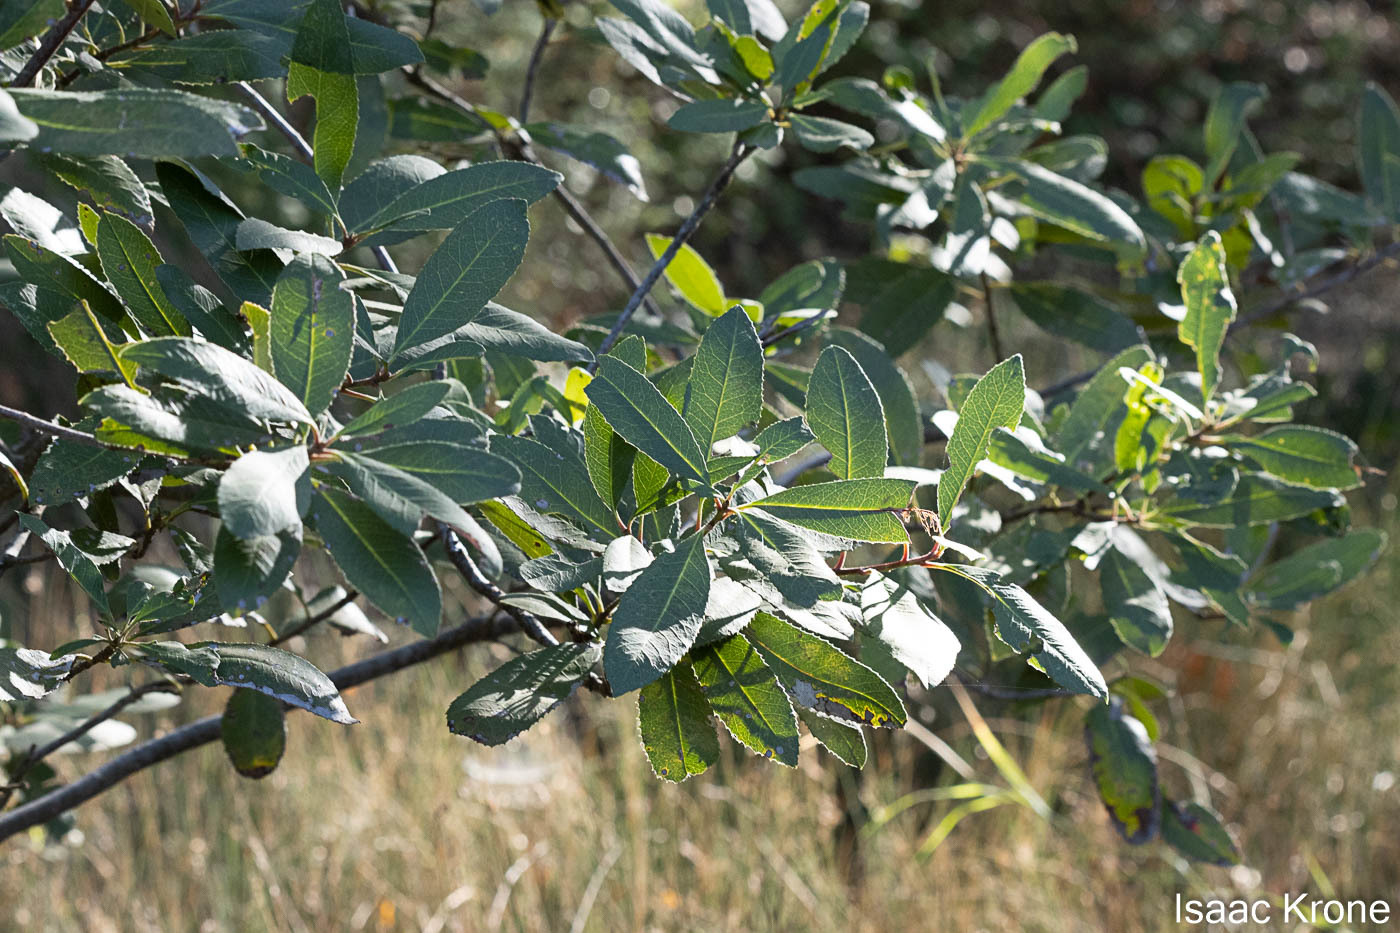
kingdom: Plantae
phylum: Tracheophyta
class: Magnoliopsida
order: Rosales
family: Rosaceae
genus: Heteromeles
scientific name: Heteromeles arbutifolia
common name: California-holly
